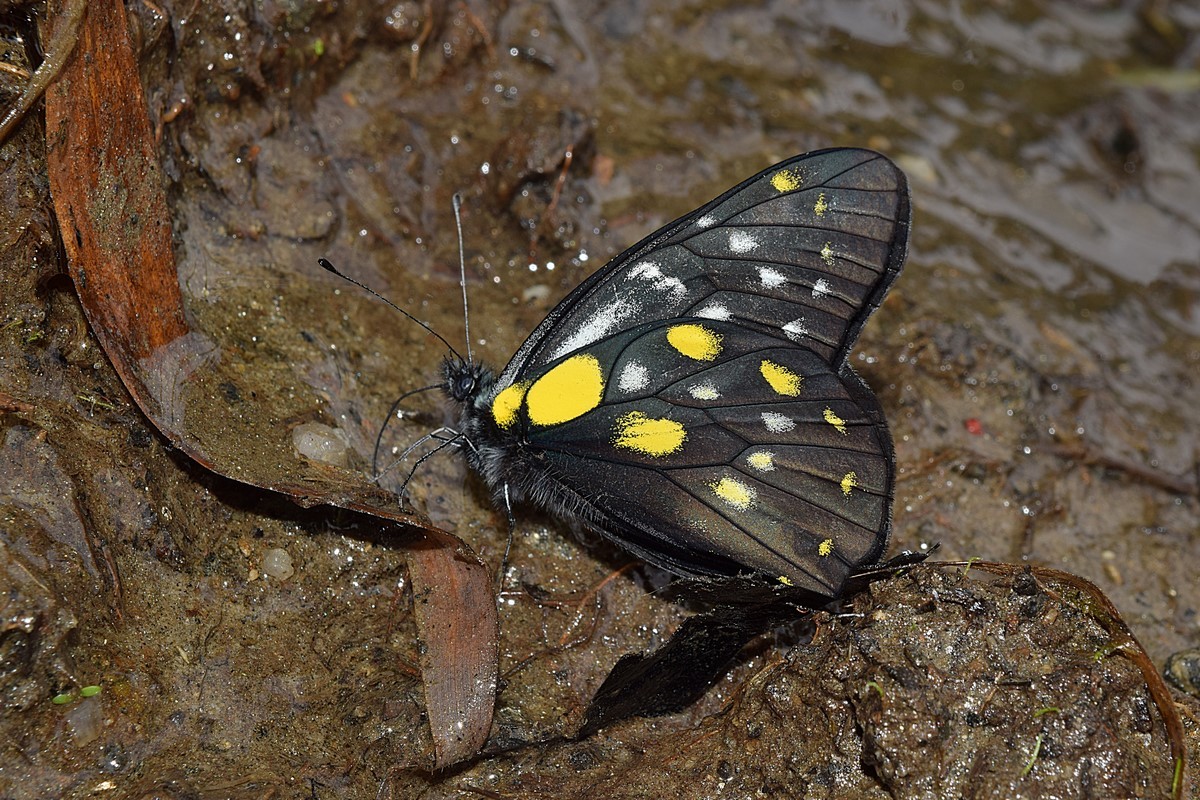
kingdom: Animalia
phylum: Arthropoda
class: Insecta
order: Lepidoptera
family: Pieridae
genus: Delias
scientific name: Delias belladonna
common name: Hill jezebel
